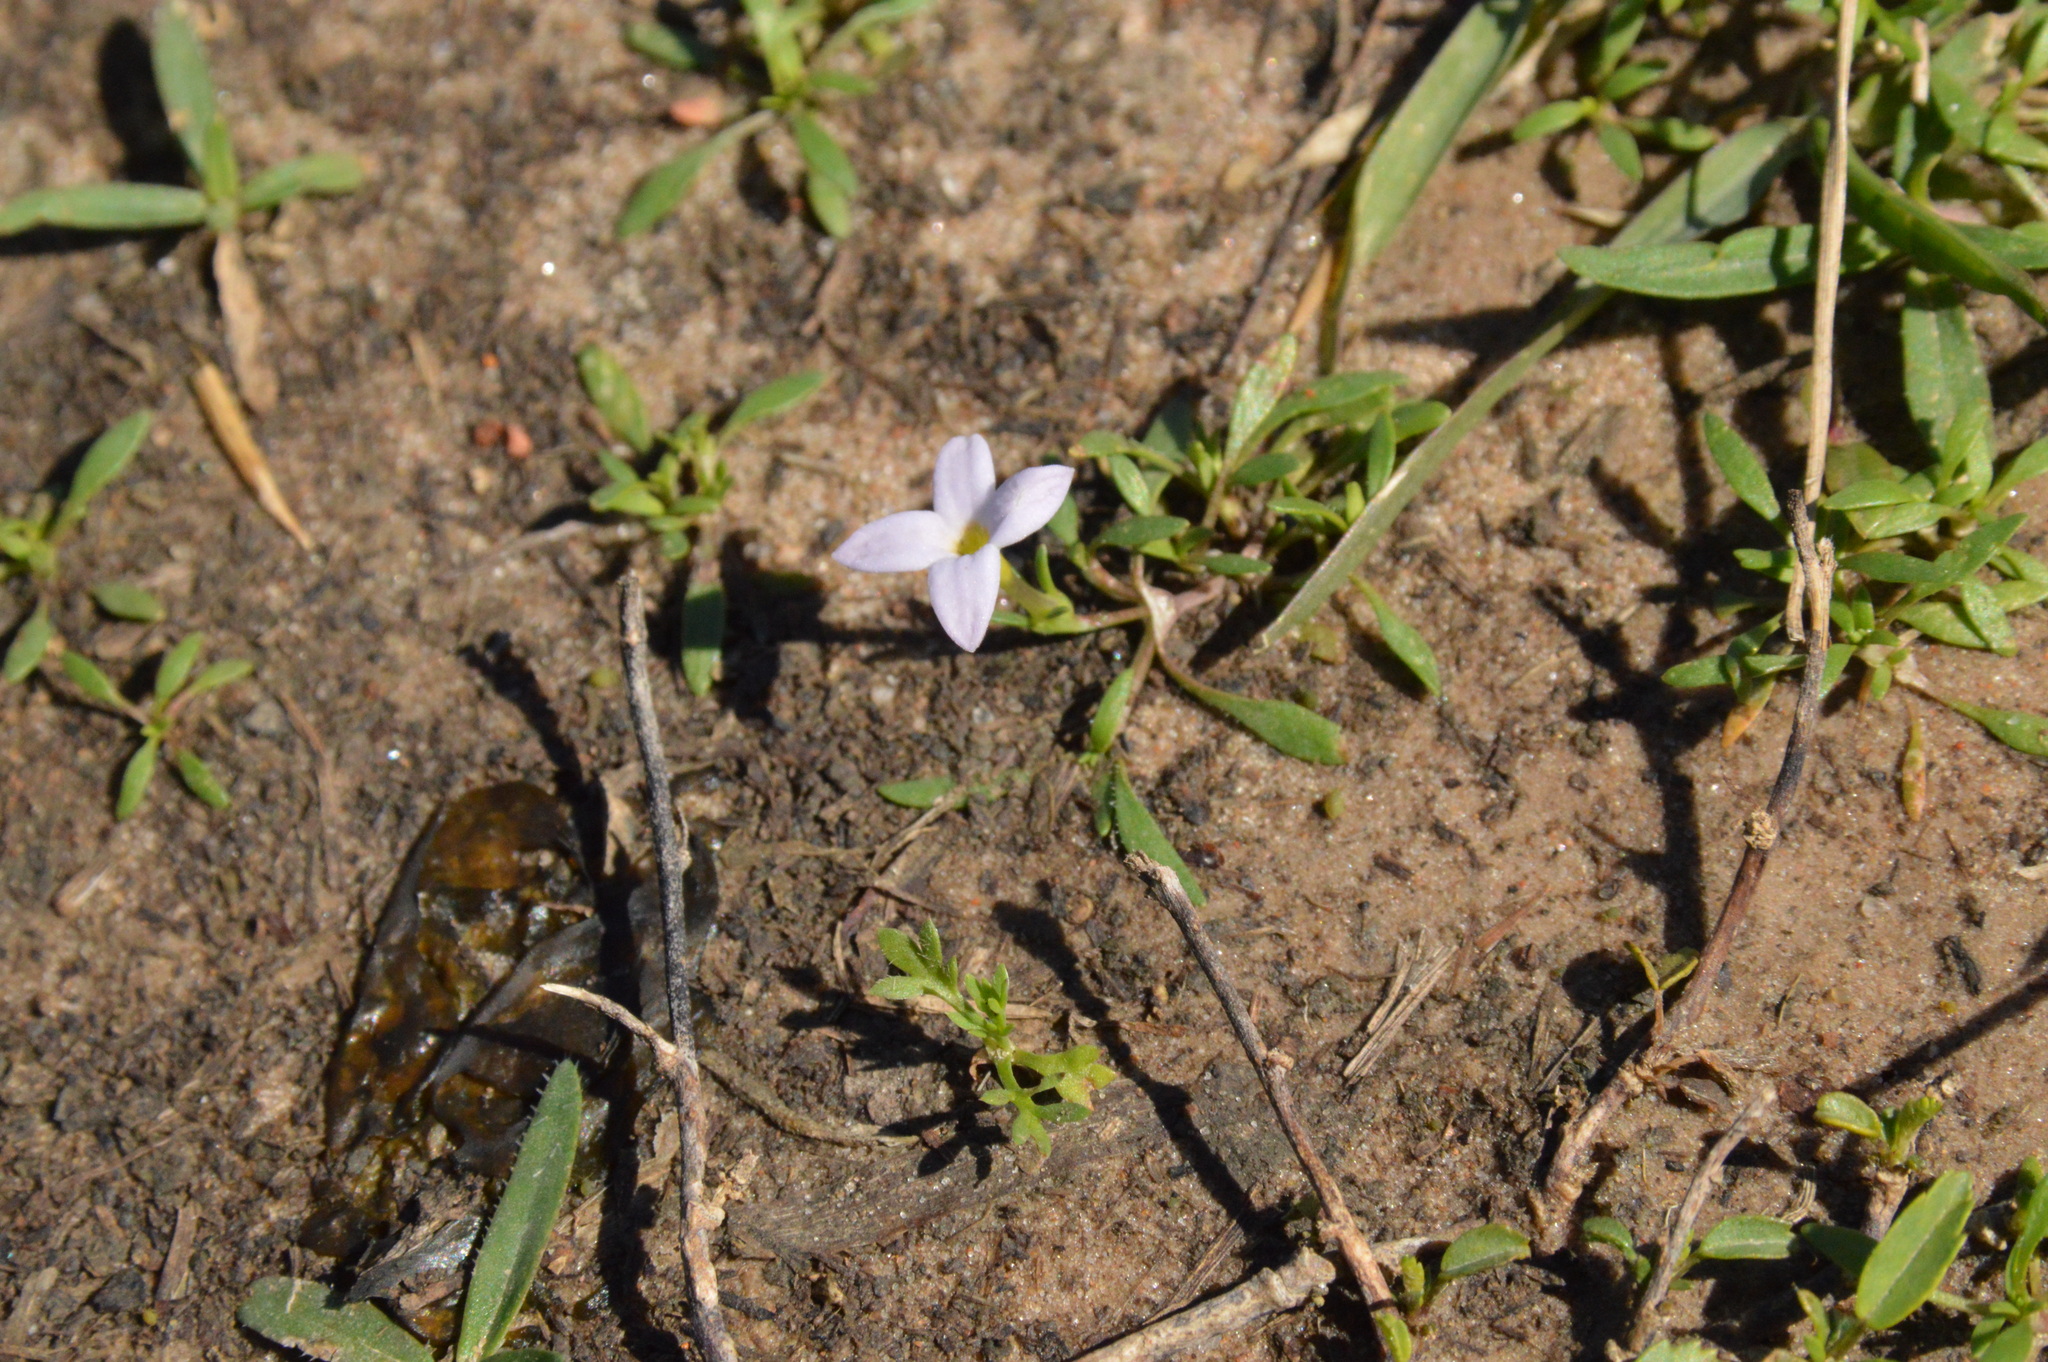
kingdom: Plantae
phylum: Tracheophyta
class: Magnoliopsida
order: Gentianales
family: Rubiaceae
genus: Houstonia
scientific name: Houstonia rosea
